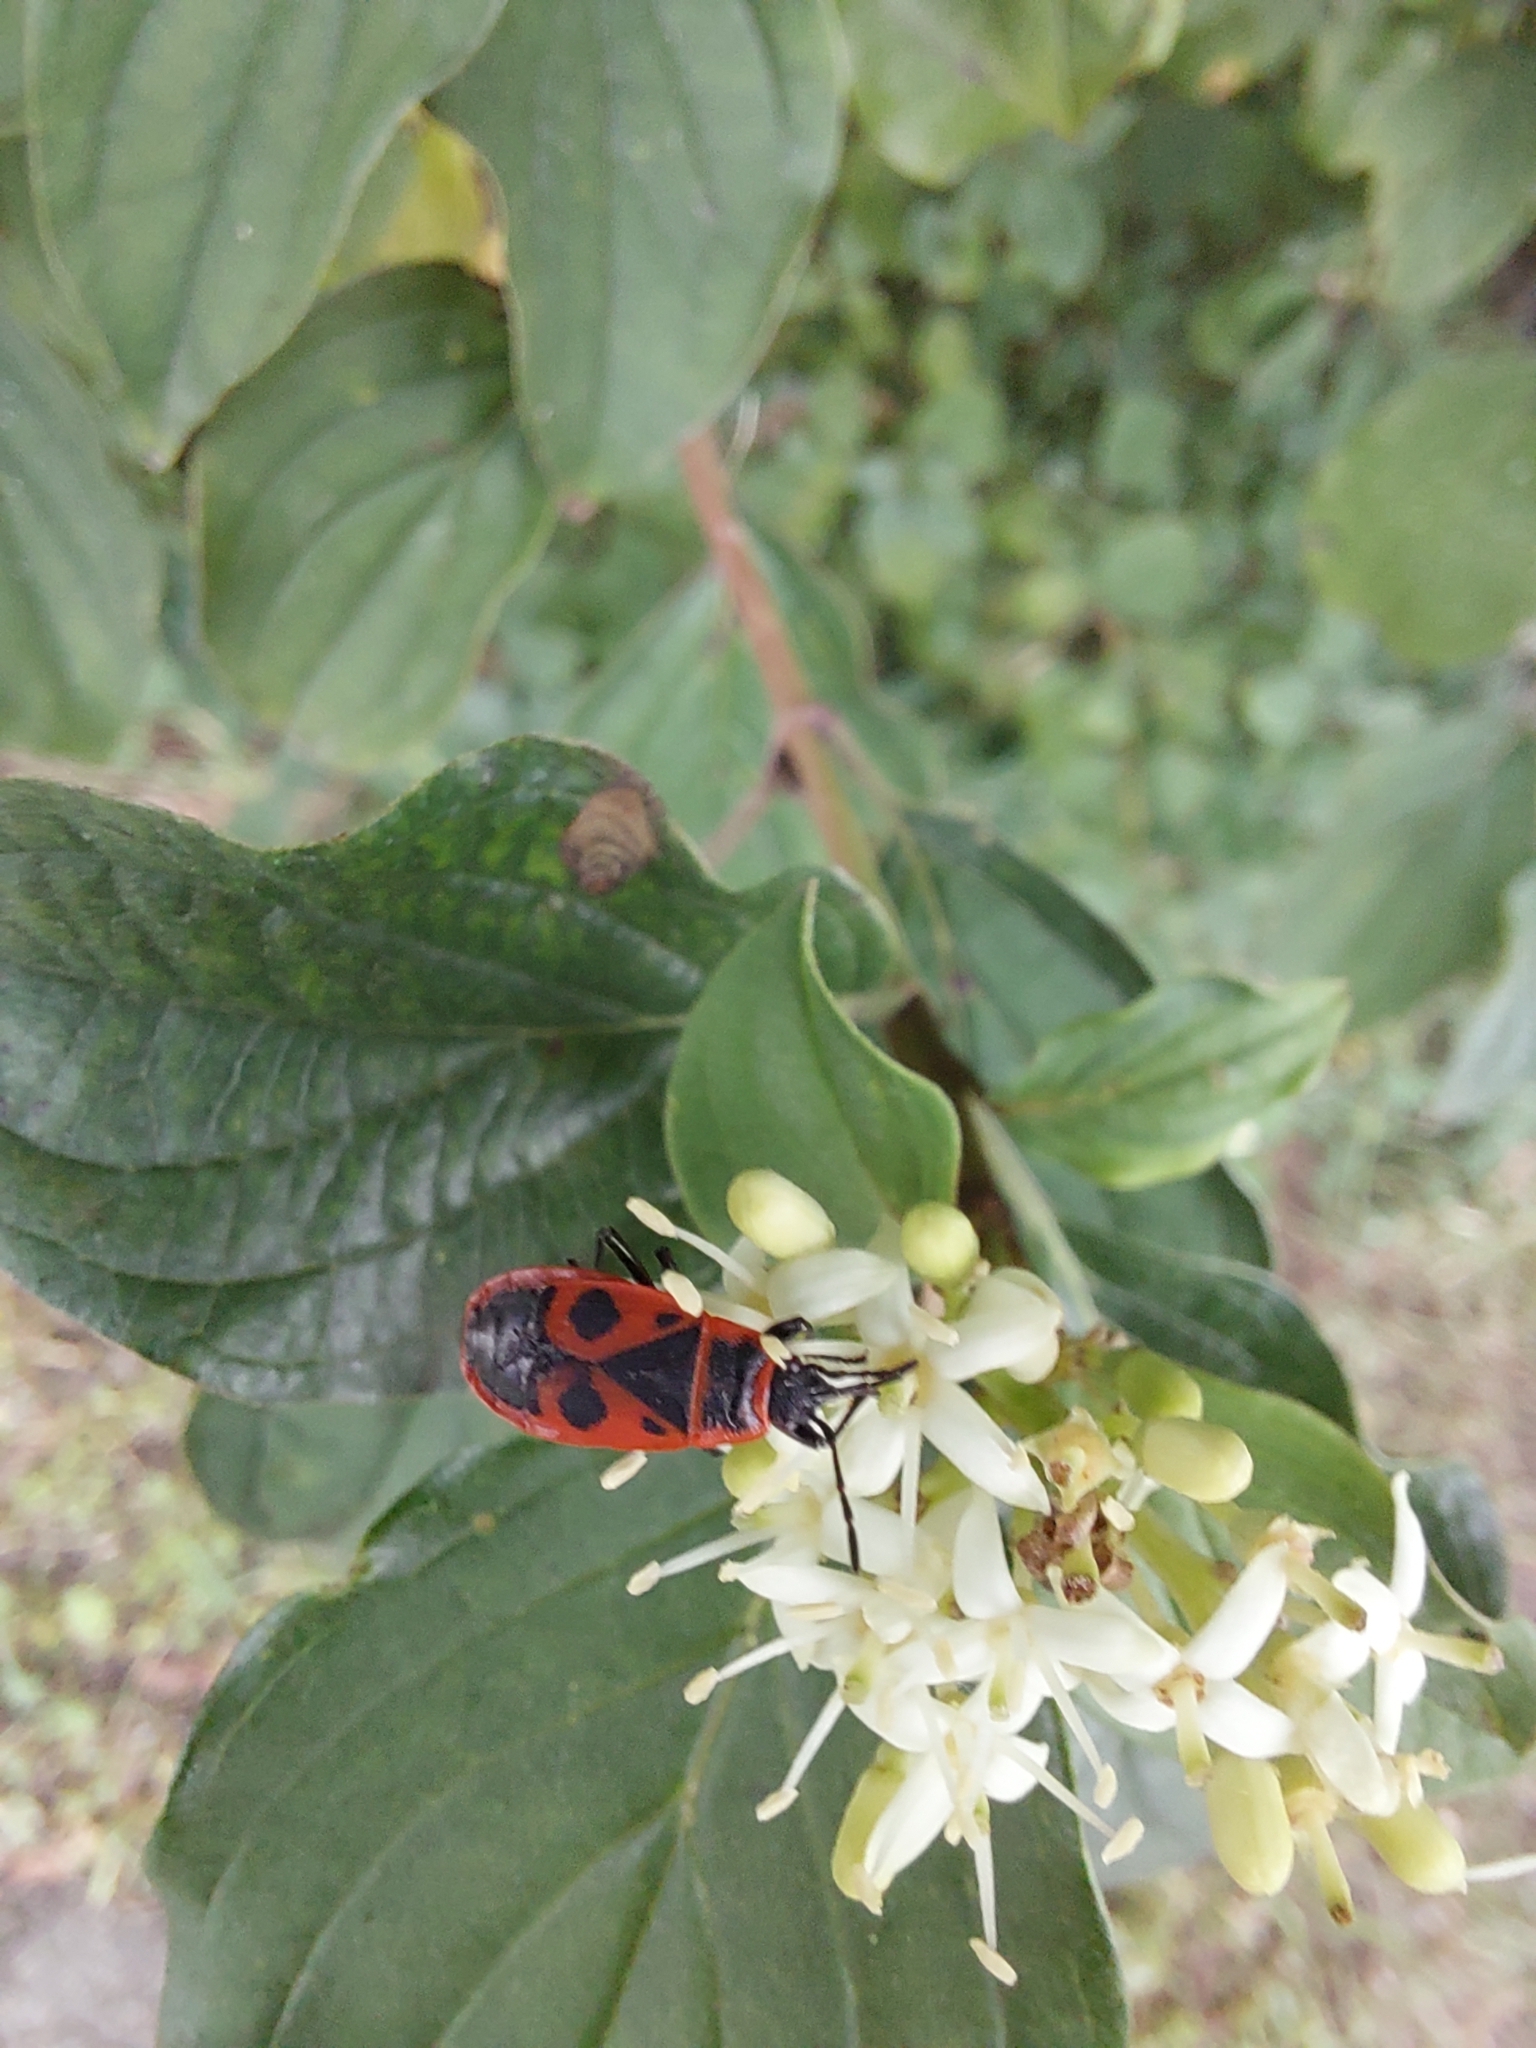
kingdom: Animalia
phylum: Arthropoda
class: Insecta
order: Hemiptera
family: Pyrrhocoridae
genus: Pyrrhocoris
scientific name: Pyrrhocoris apterus
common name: Firebug
